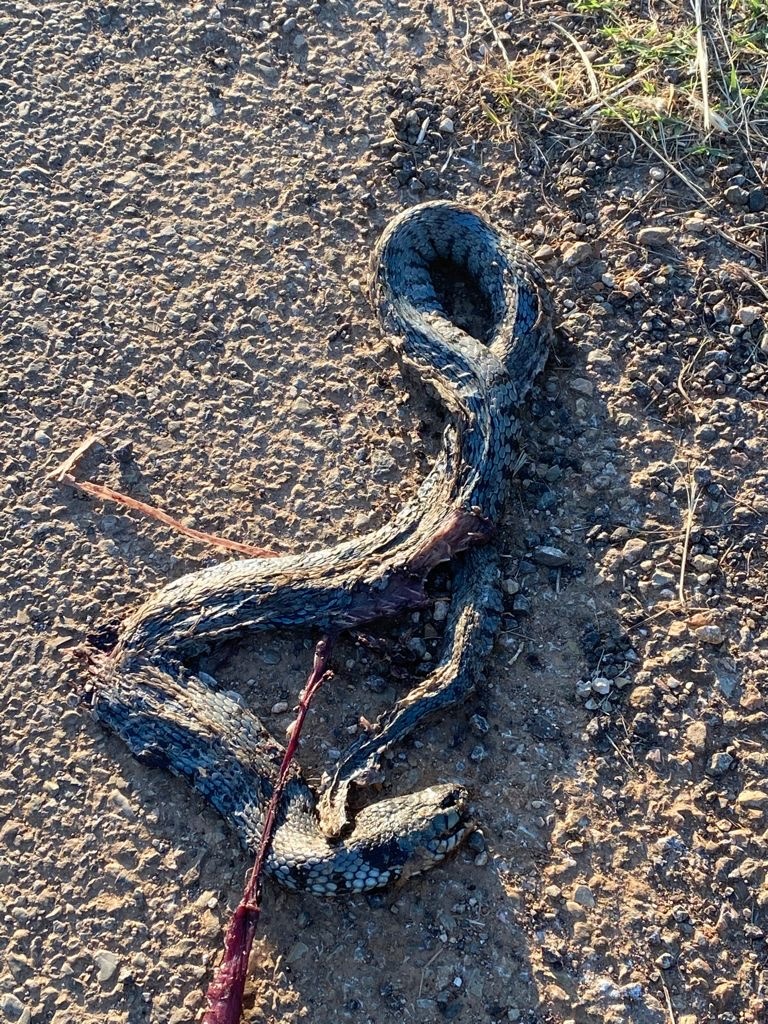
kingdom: Animalia
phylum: Chordata
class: Squamata
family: Colubridae
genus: Natrix
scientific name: Natrix helvetica
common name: Banded grass snake
